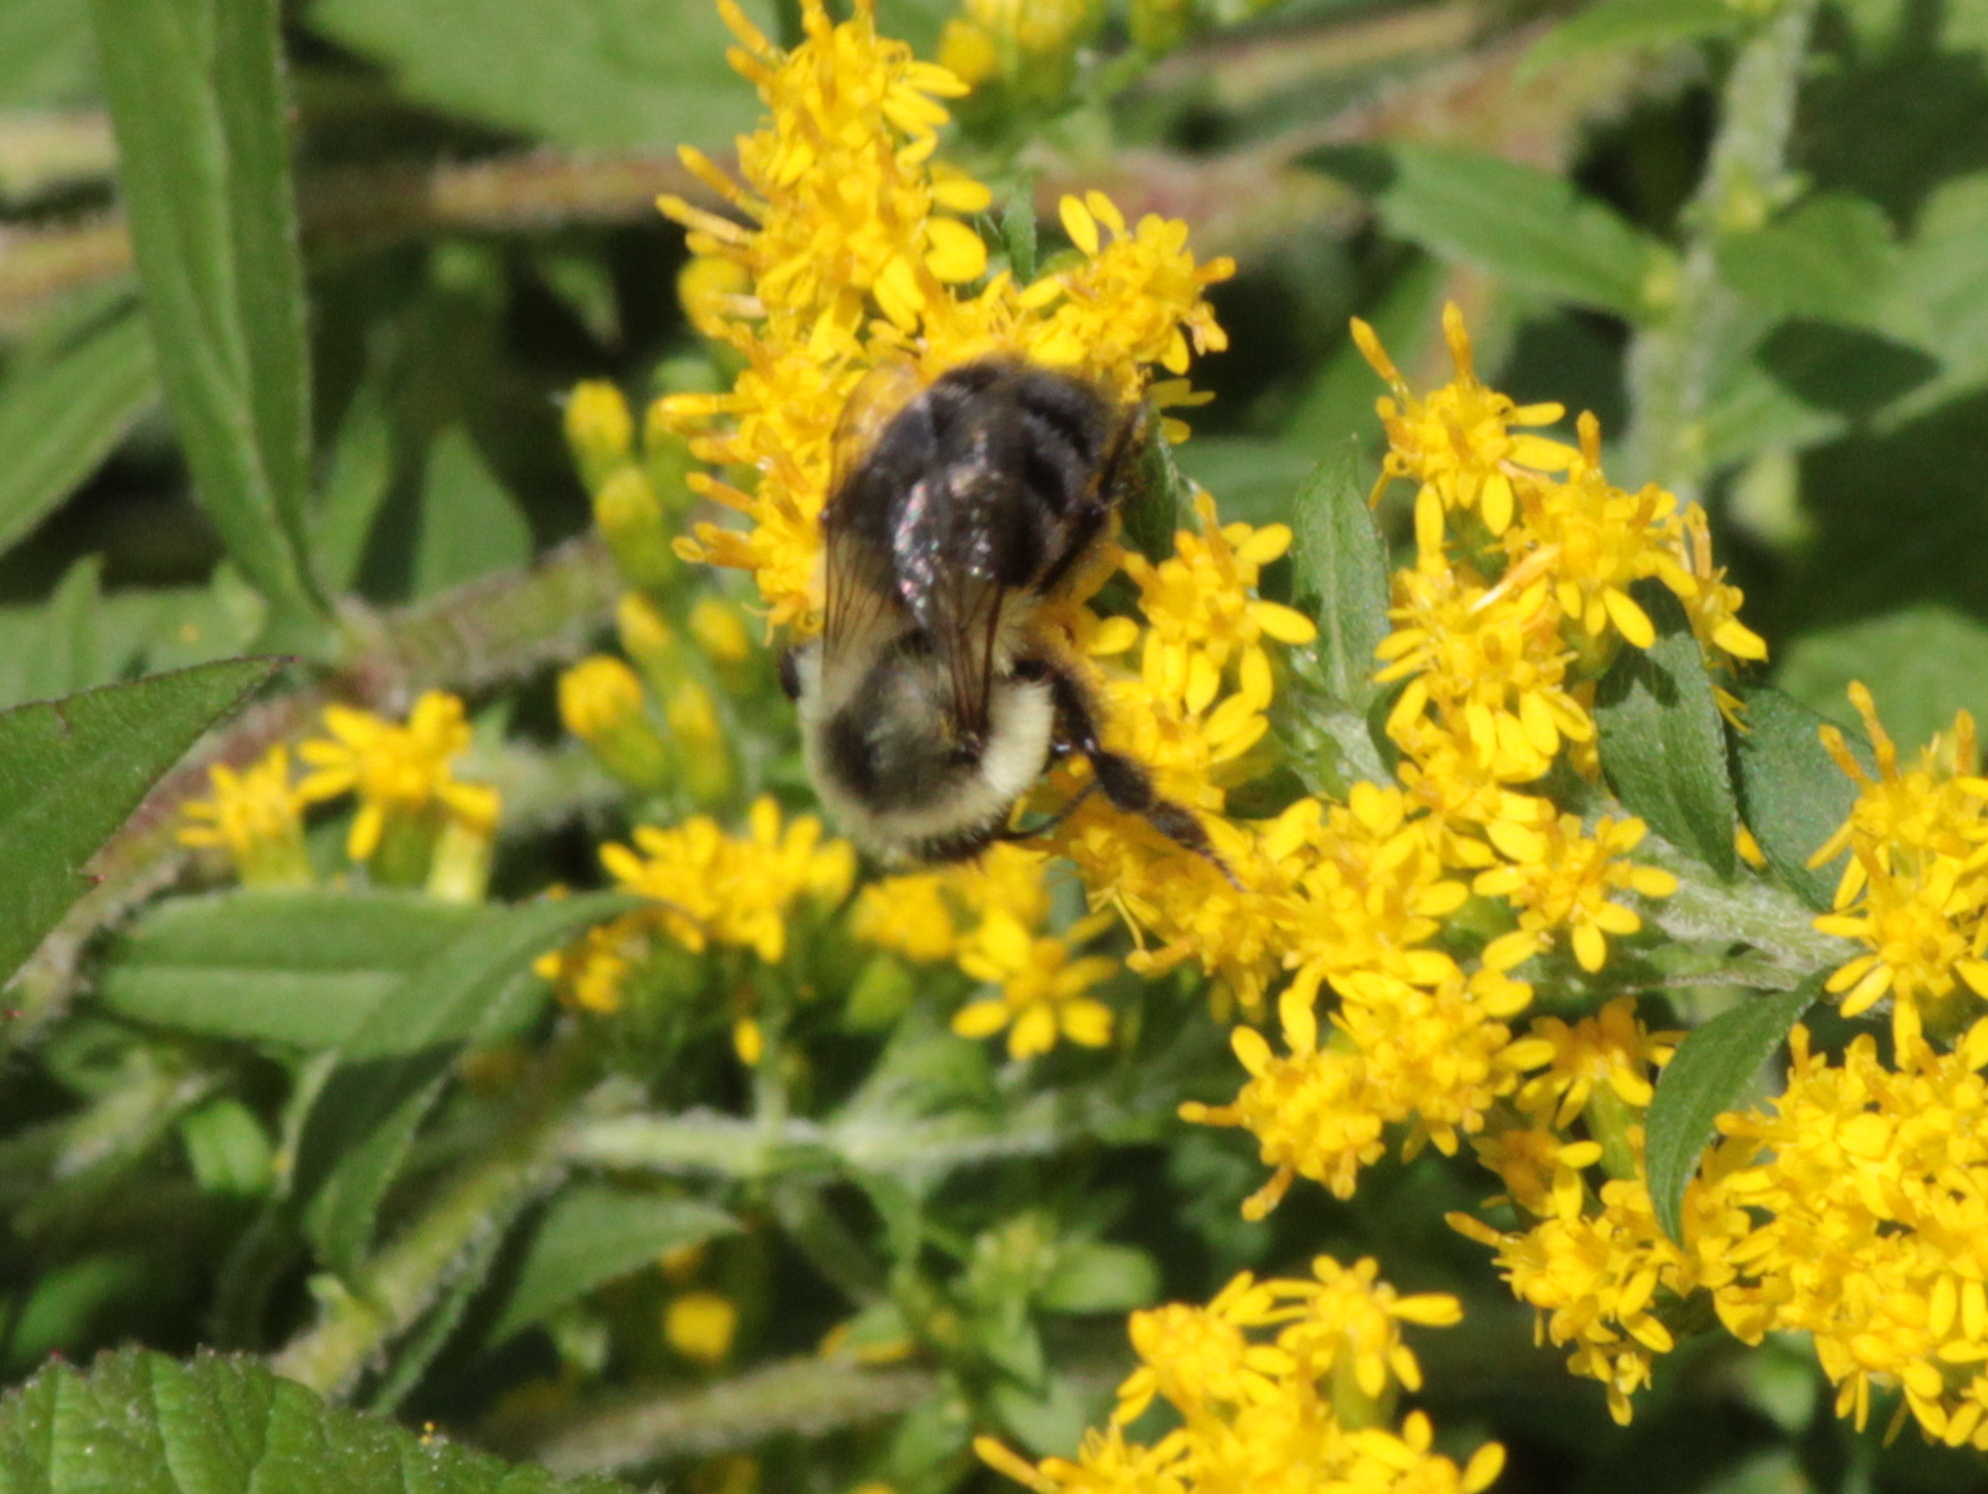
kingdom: Animalia
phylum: Arthropoda
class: Insecta
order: Hymenoptera
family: Apidae
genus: Bombus
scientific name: Bombus impatiens
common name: Common eastern bumble bee
